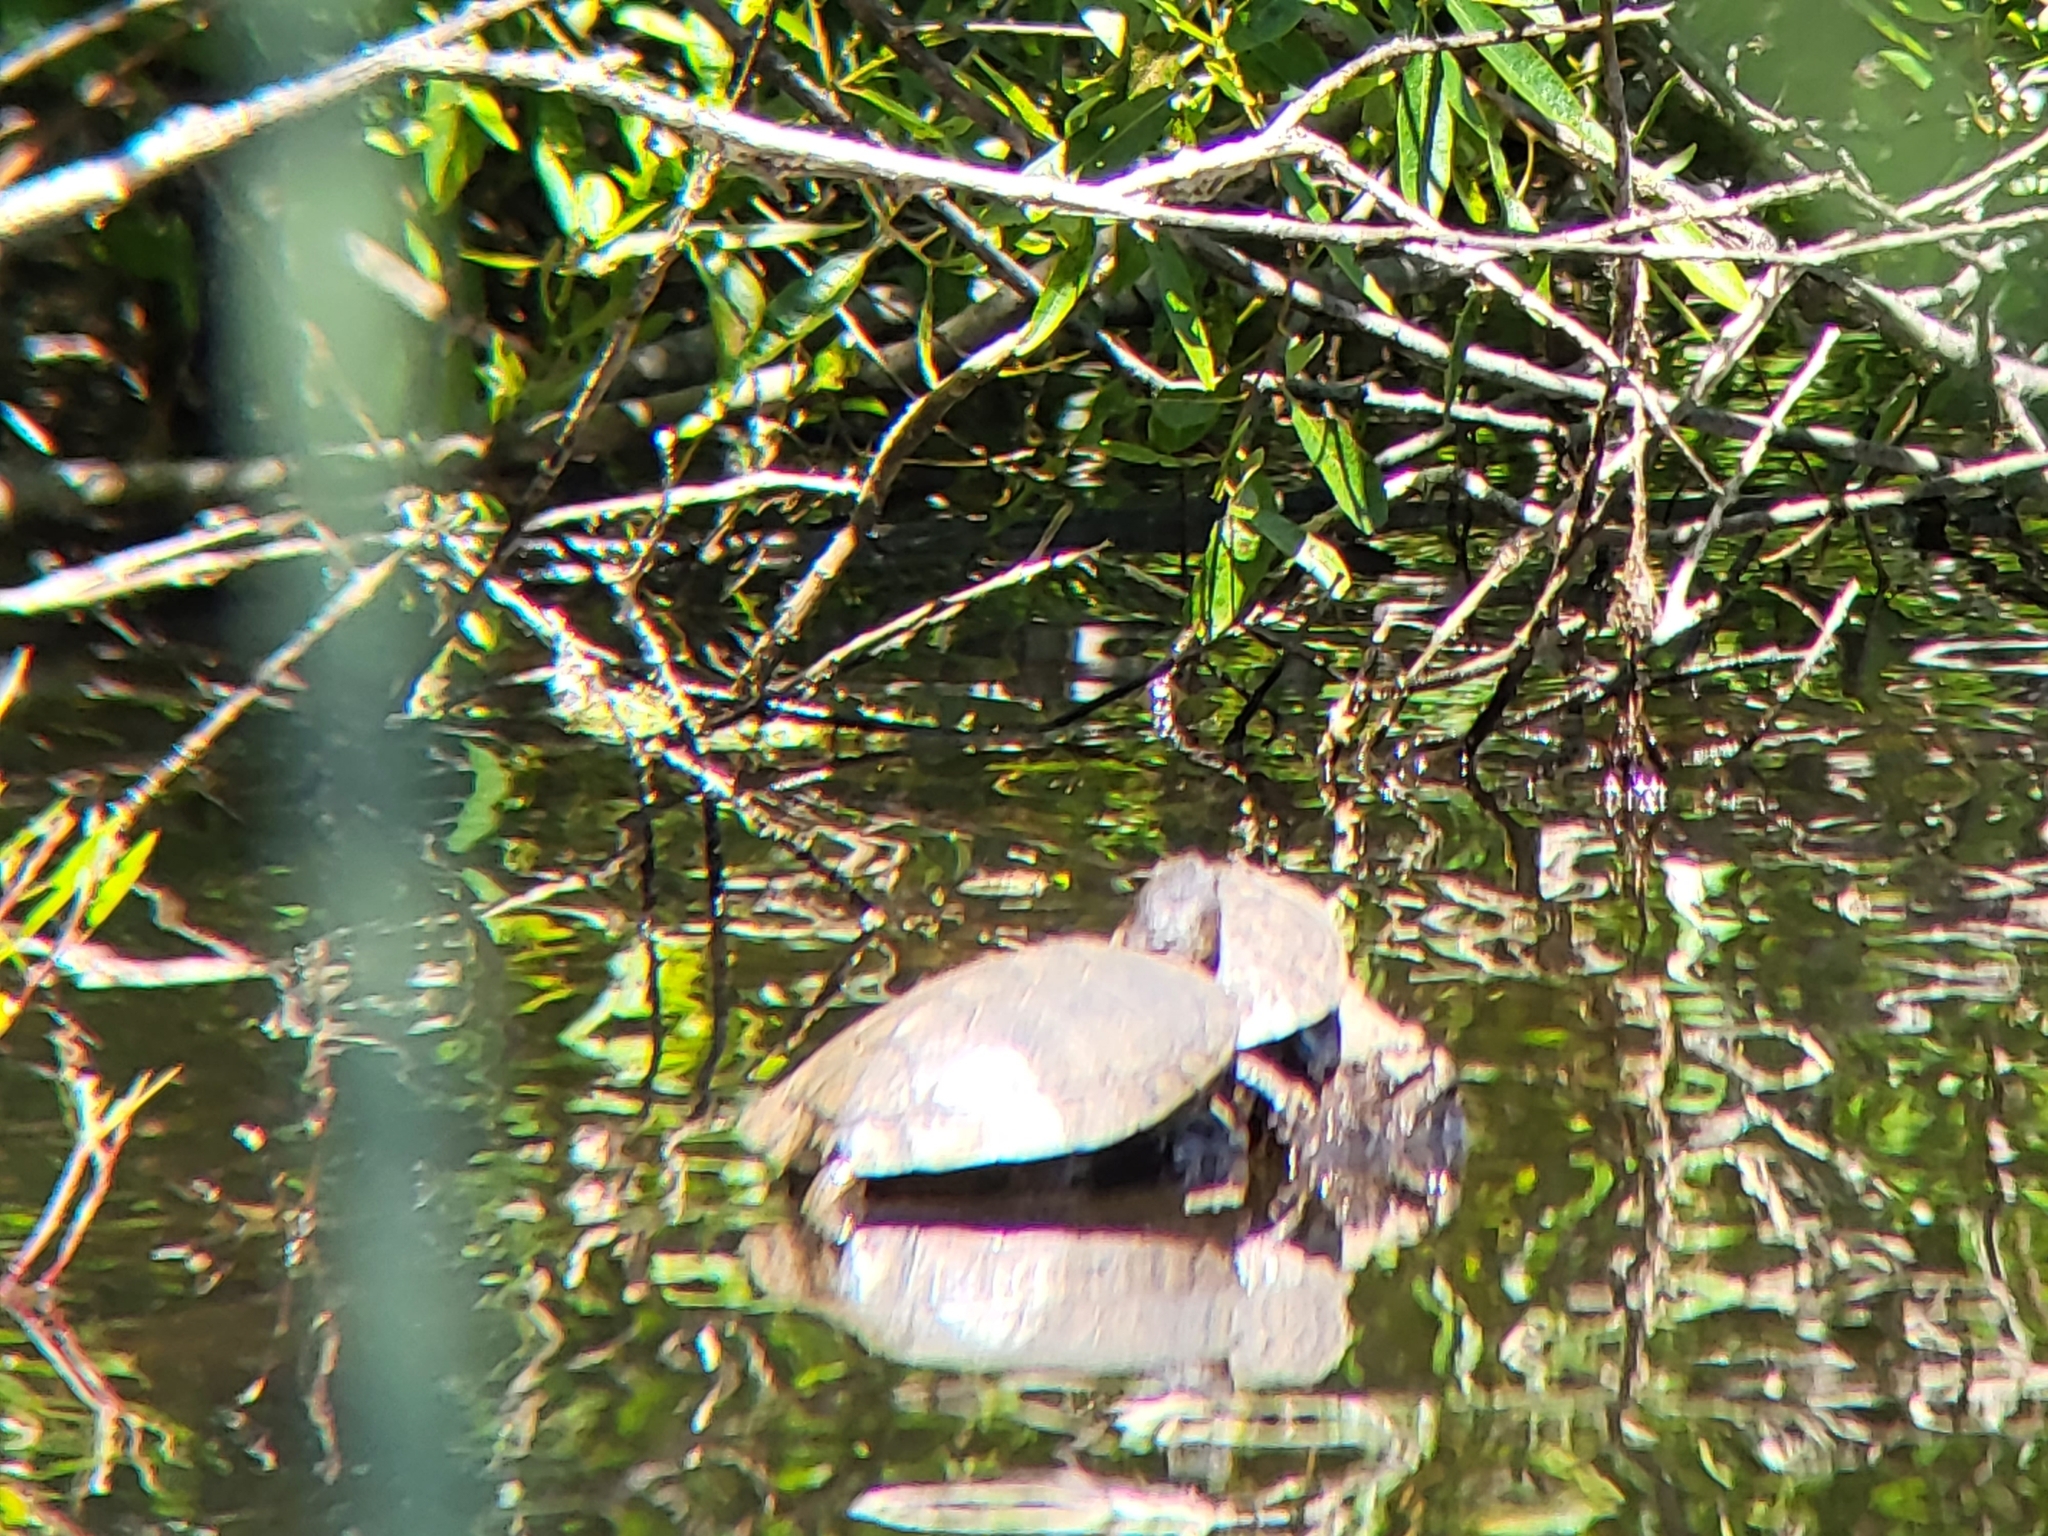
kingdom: Animalia
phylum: Chordata
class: Testudines
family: Emydidae
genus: Actinemys
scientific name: Actinemys marmorata
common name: Western pond turtle
